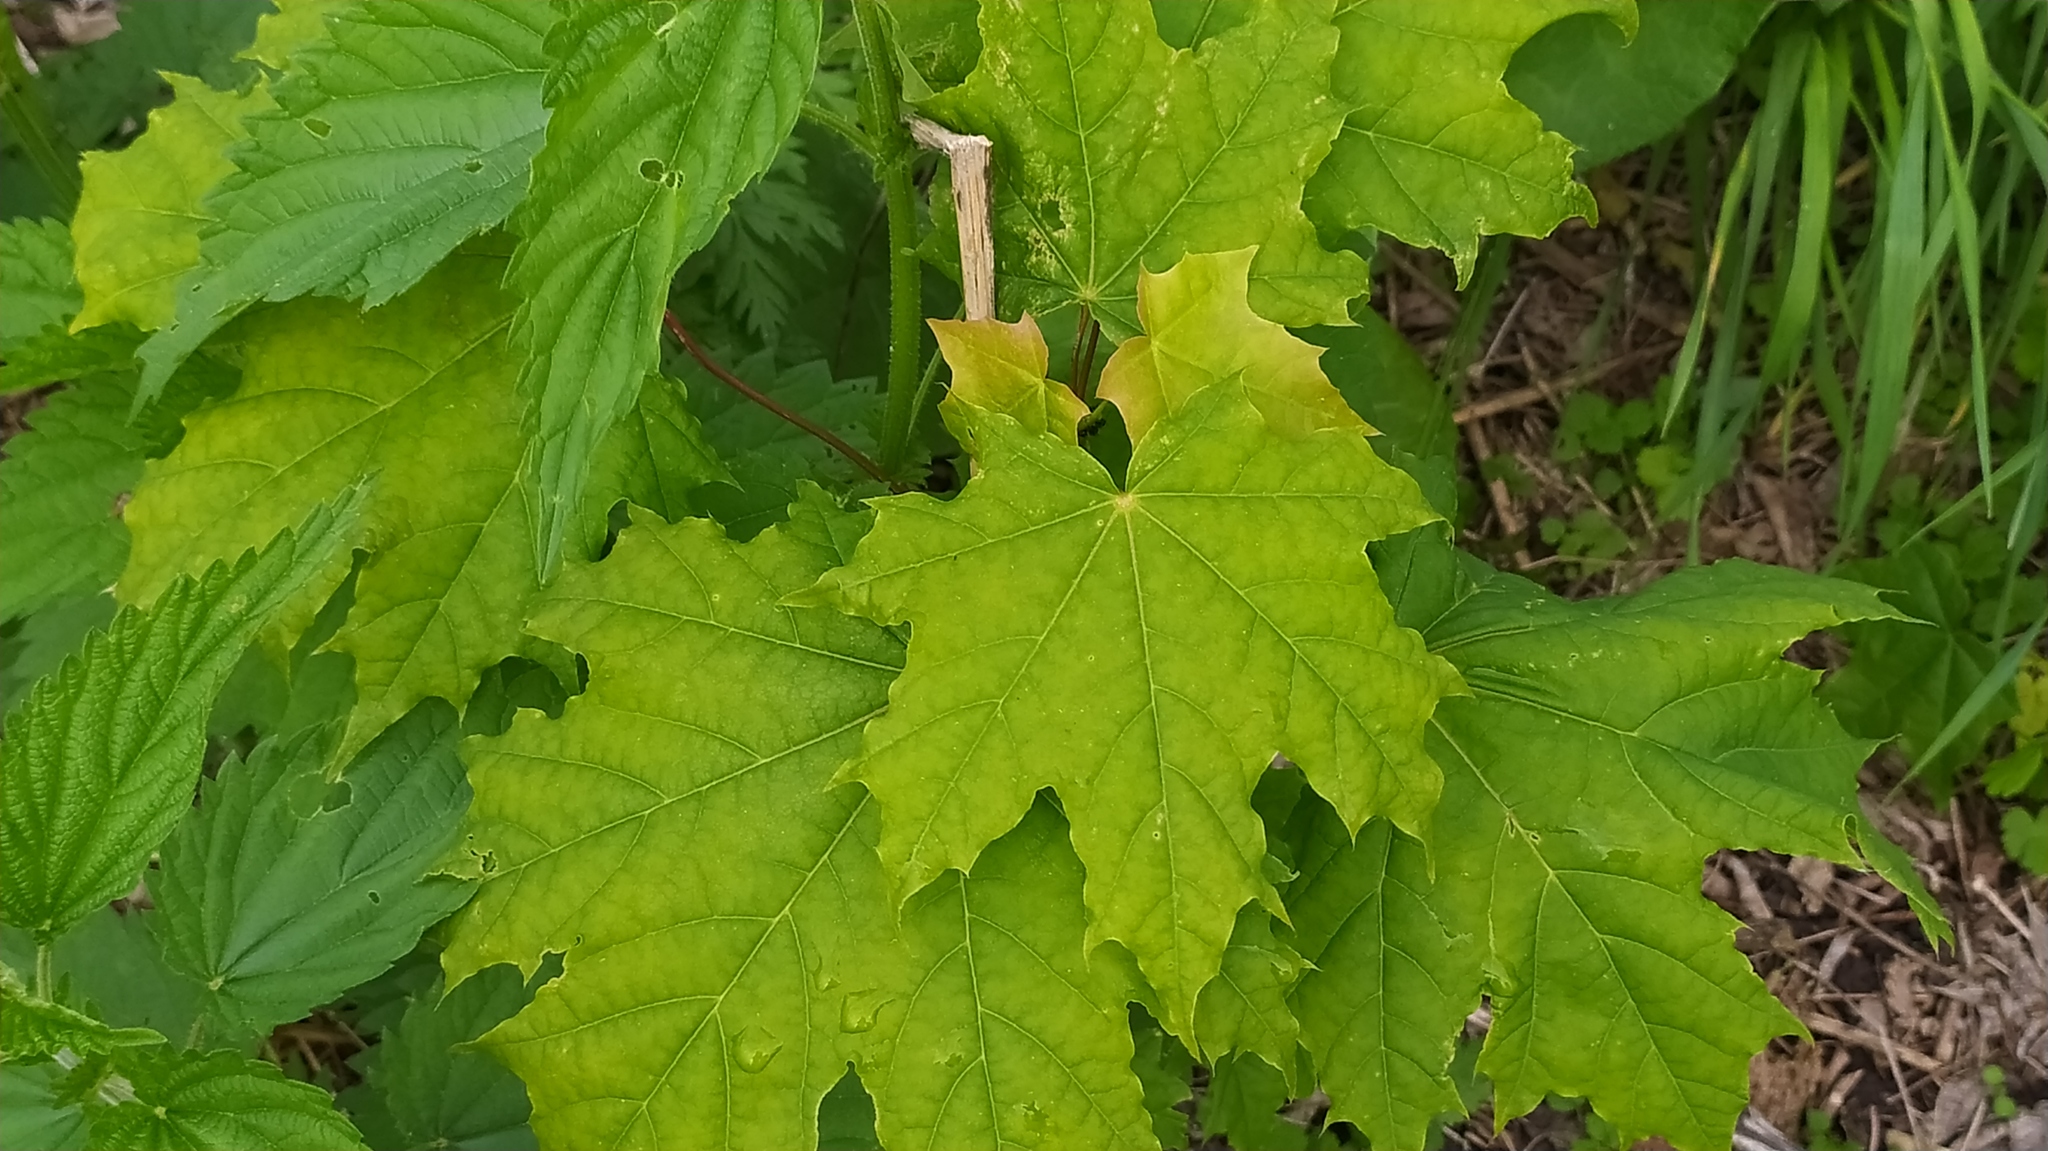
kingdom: Plantae
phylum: Tracheophyta
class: Magnoliopsida
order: Sapindales
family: Sapindaceae
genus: Acer
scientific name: Acer platanoides
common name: Norway maple
